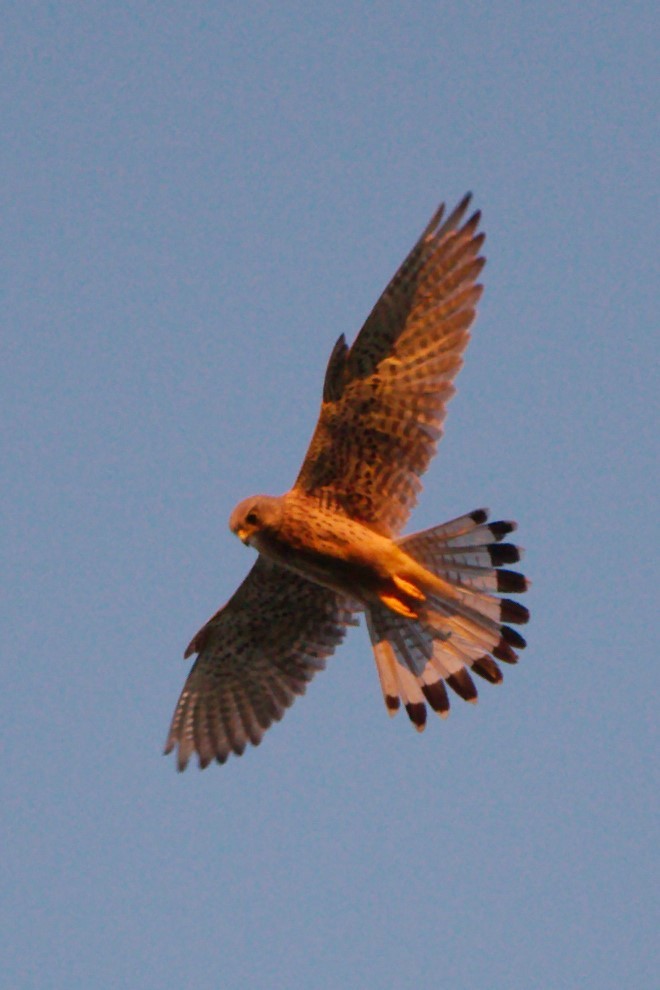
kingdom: Animalia
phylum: Chordata
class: Aves
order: Falconiformes
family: Falconidae
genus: Falco
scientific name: Falco tinnunculus
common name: Common kestrel
